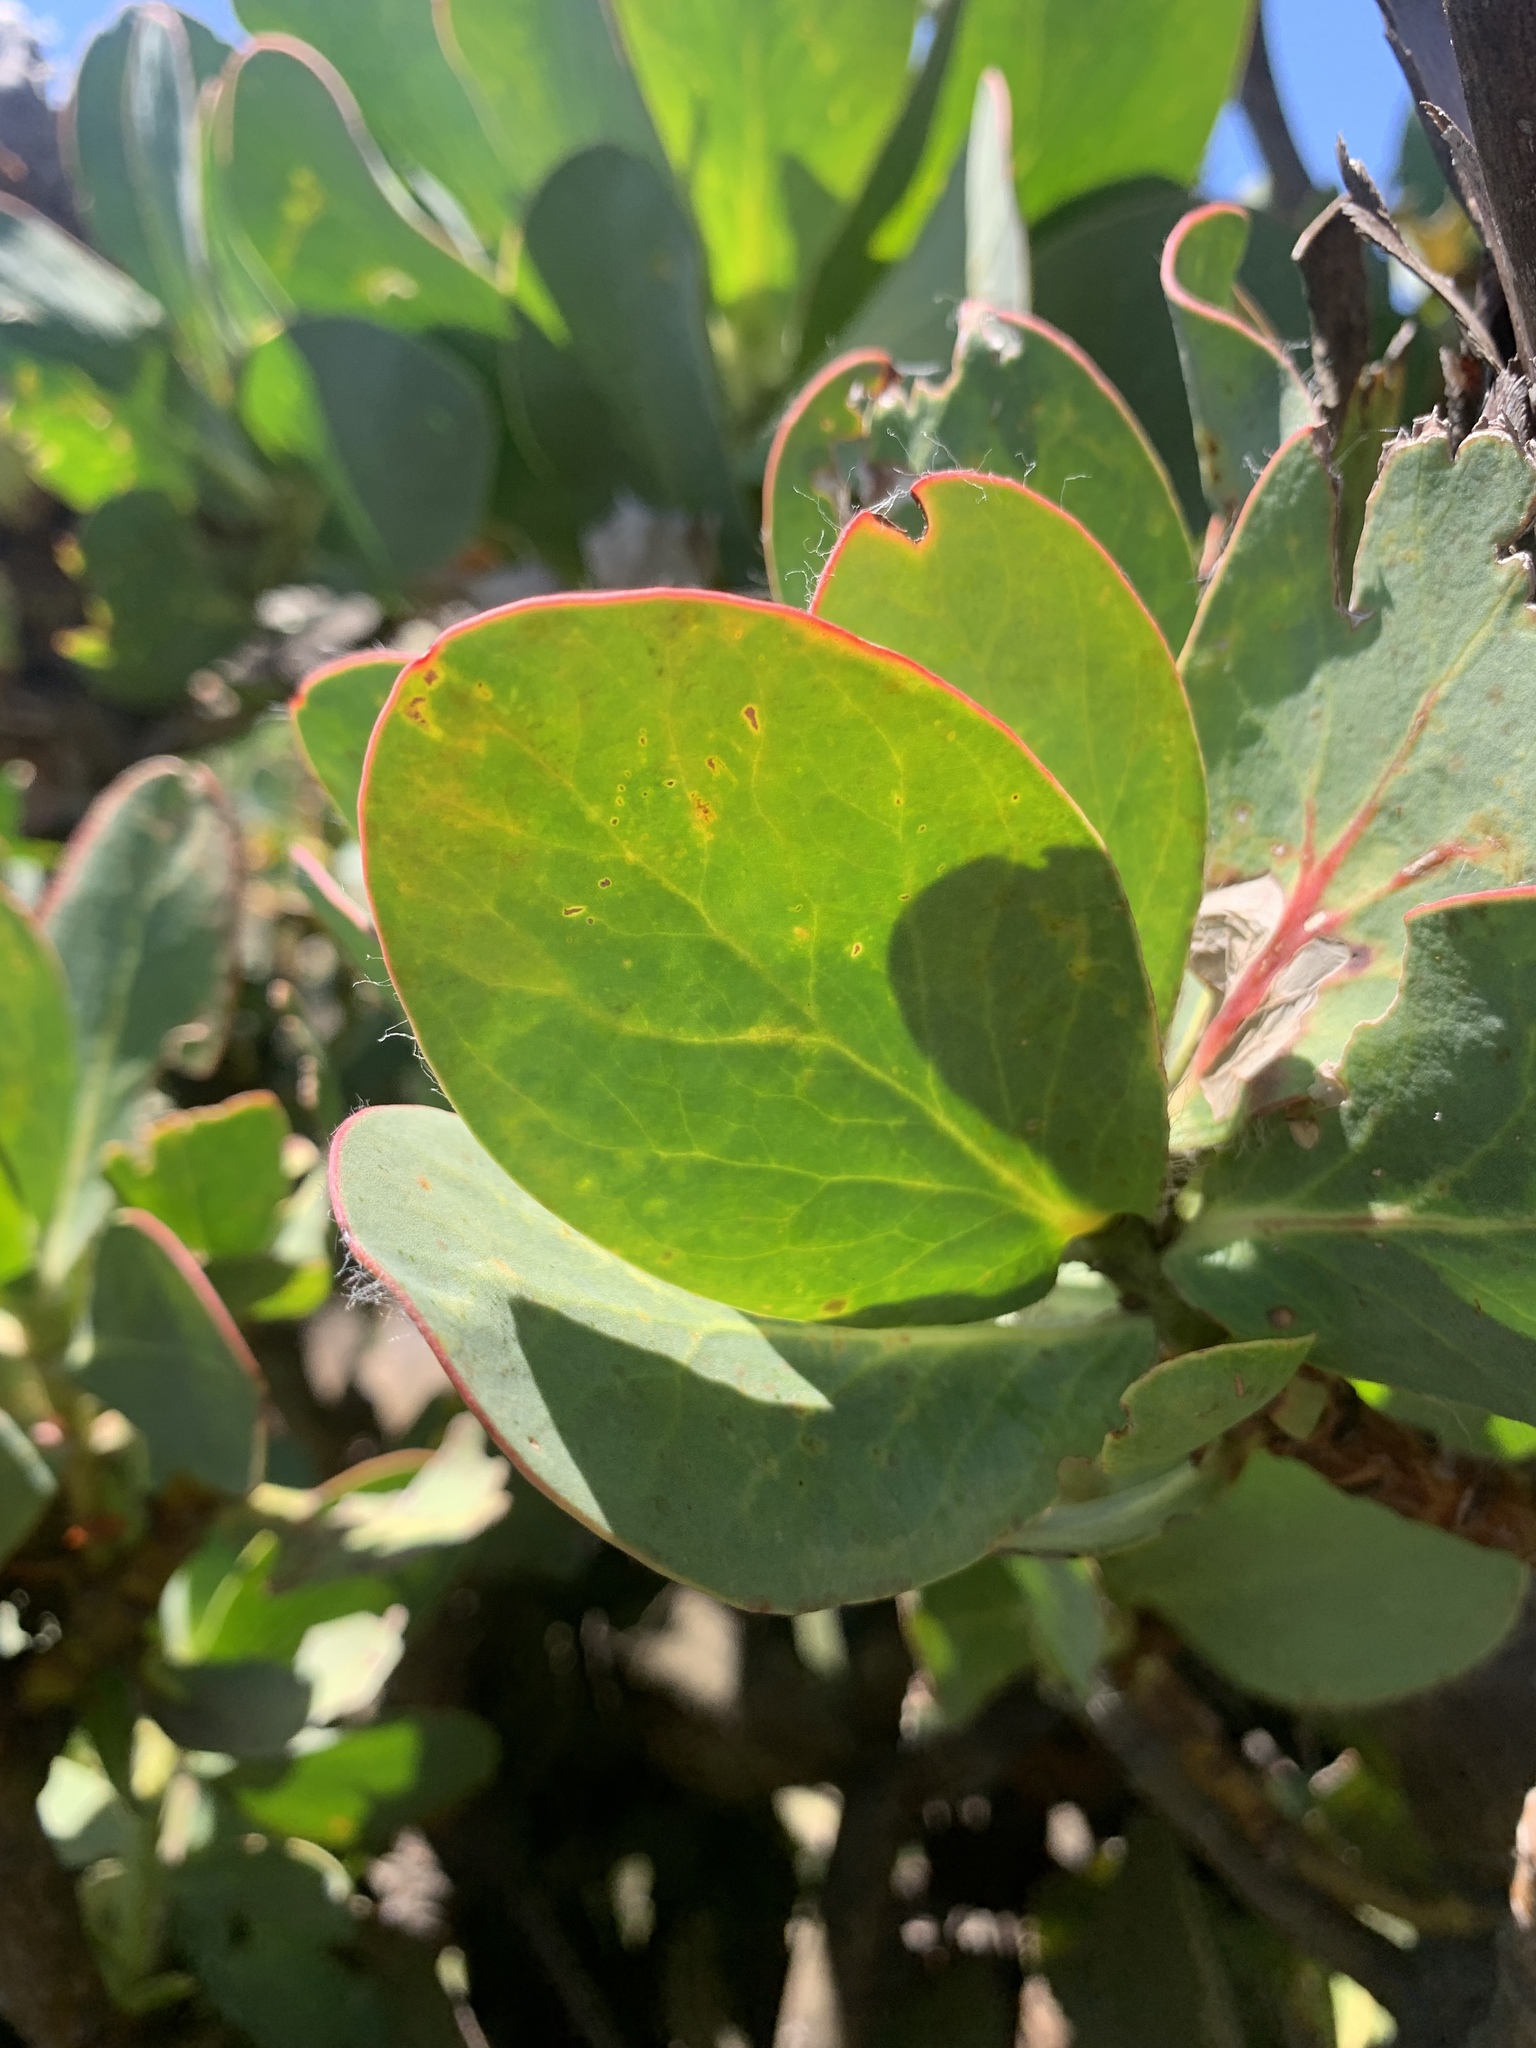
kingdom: Plantae
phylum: Tracheophyta
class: Magnoliopsida
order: Proteales
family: Proteaceae
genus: Protea
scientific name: Protea grandiceps
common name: Red sugarbush
